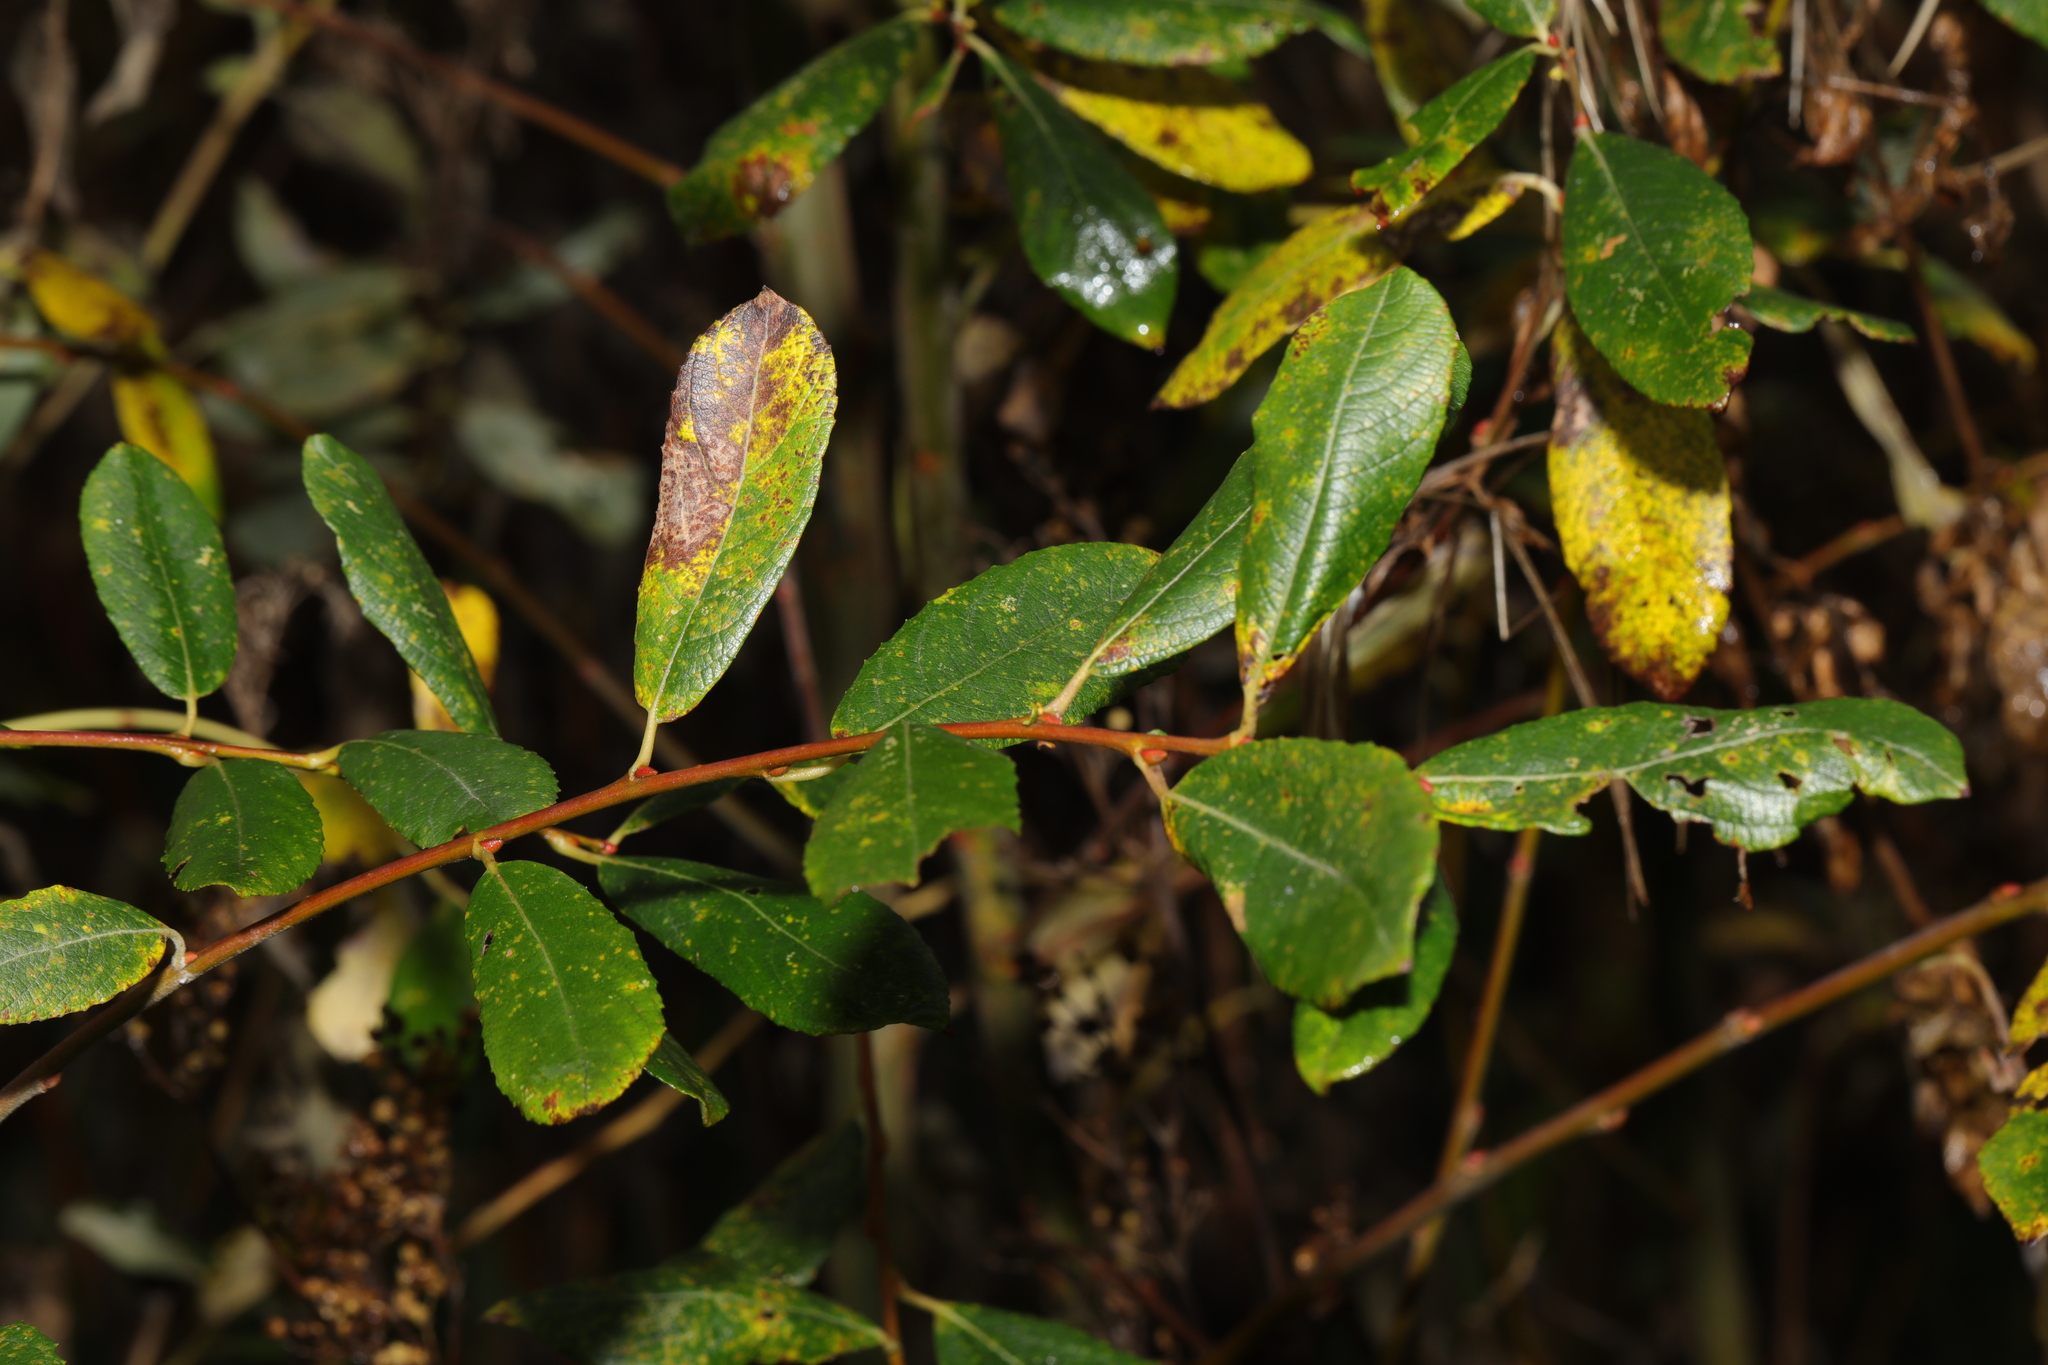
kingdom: Plantae
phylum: Tracheophyta
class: Magnoliopsida
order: Malpighiales
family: Salicaceae
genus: Salix
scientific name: Salix atrocinerea
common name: Rusty willow
